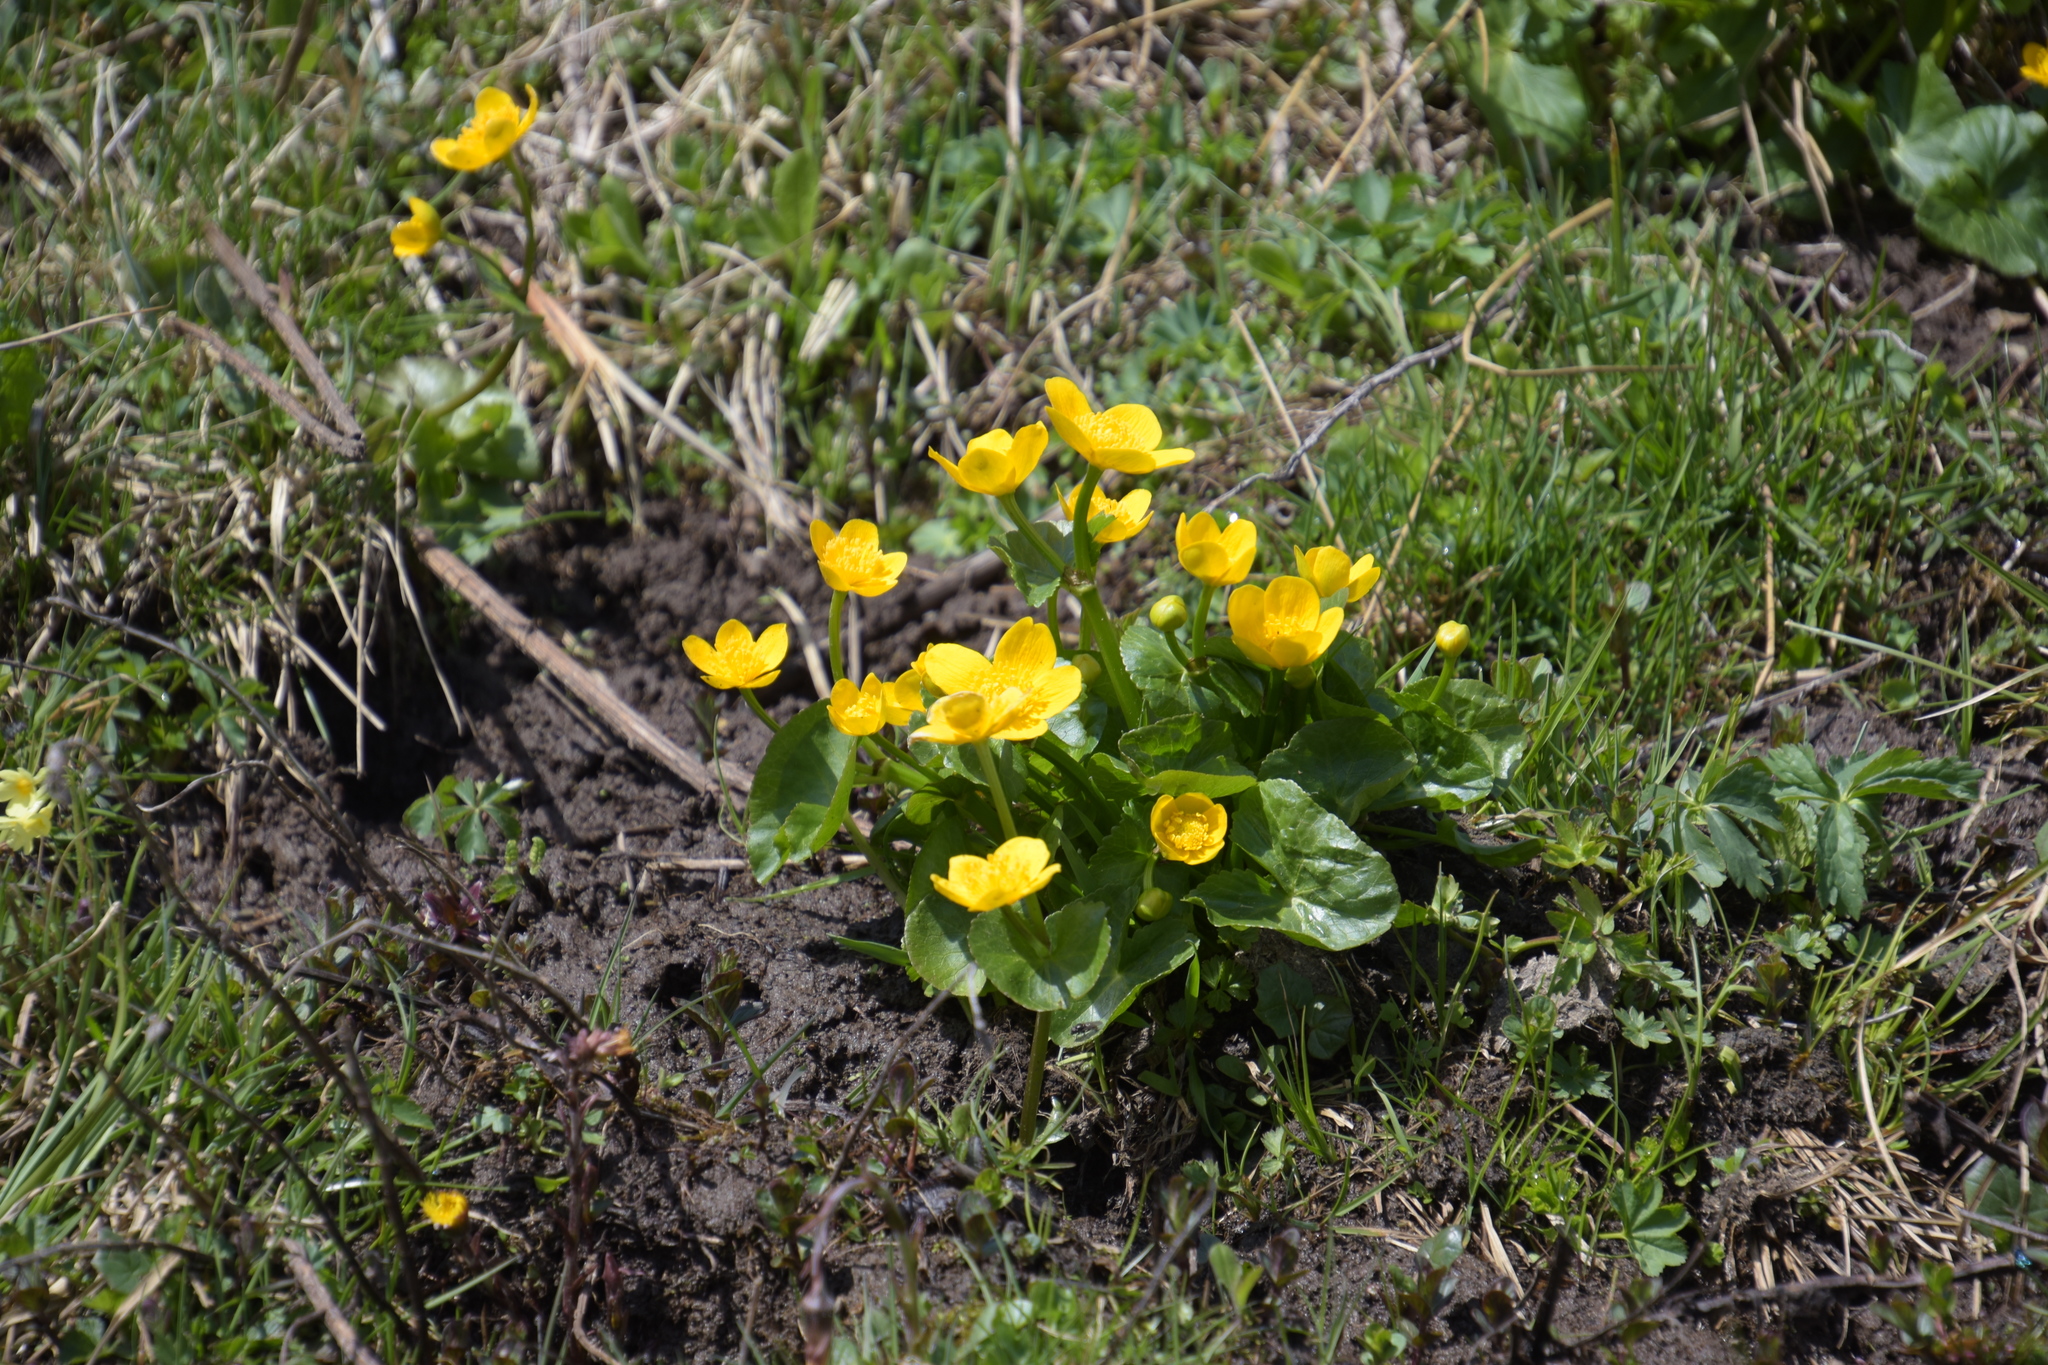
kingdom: Plantae
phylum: Tracheophyta
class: Magnoliopsida
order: Ranunculales
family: Ranunculaceae
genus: Caltha
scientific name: Caltha palustris
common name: Marsh marigold
